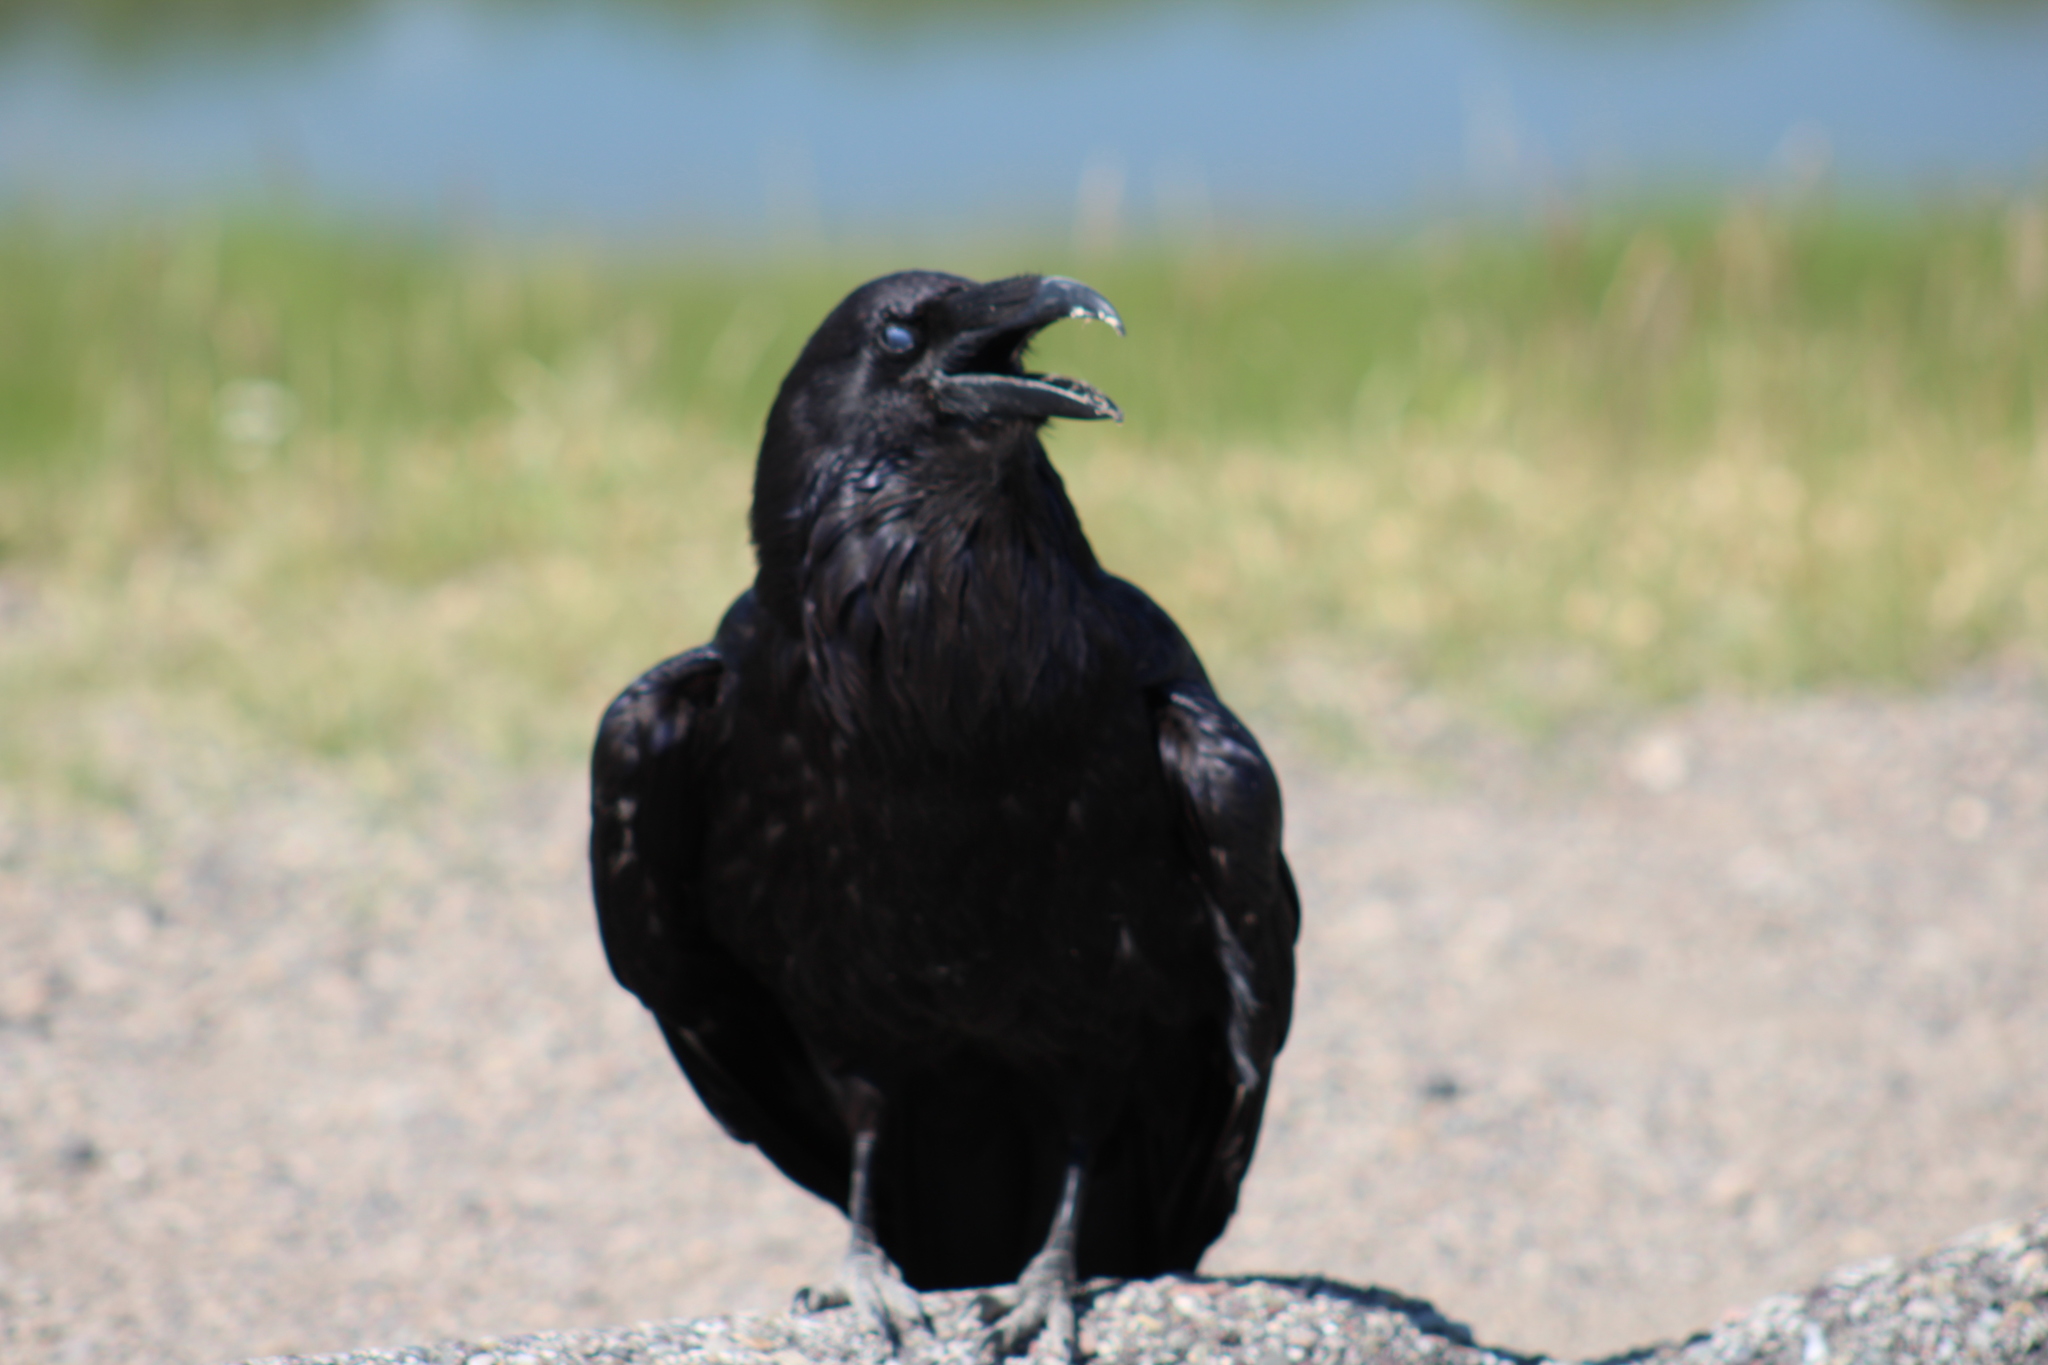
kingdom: Animalia
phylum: Chordata
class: Aves
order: Passeriformes
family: Corvidae
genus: Corvus
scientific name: Corvus corax
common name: Common raven
